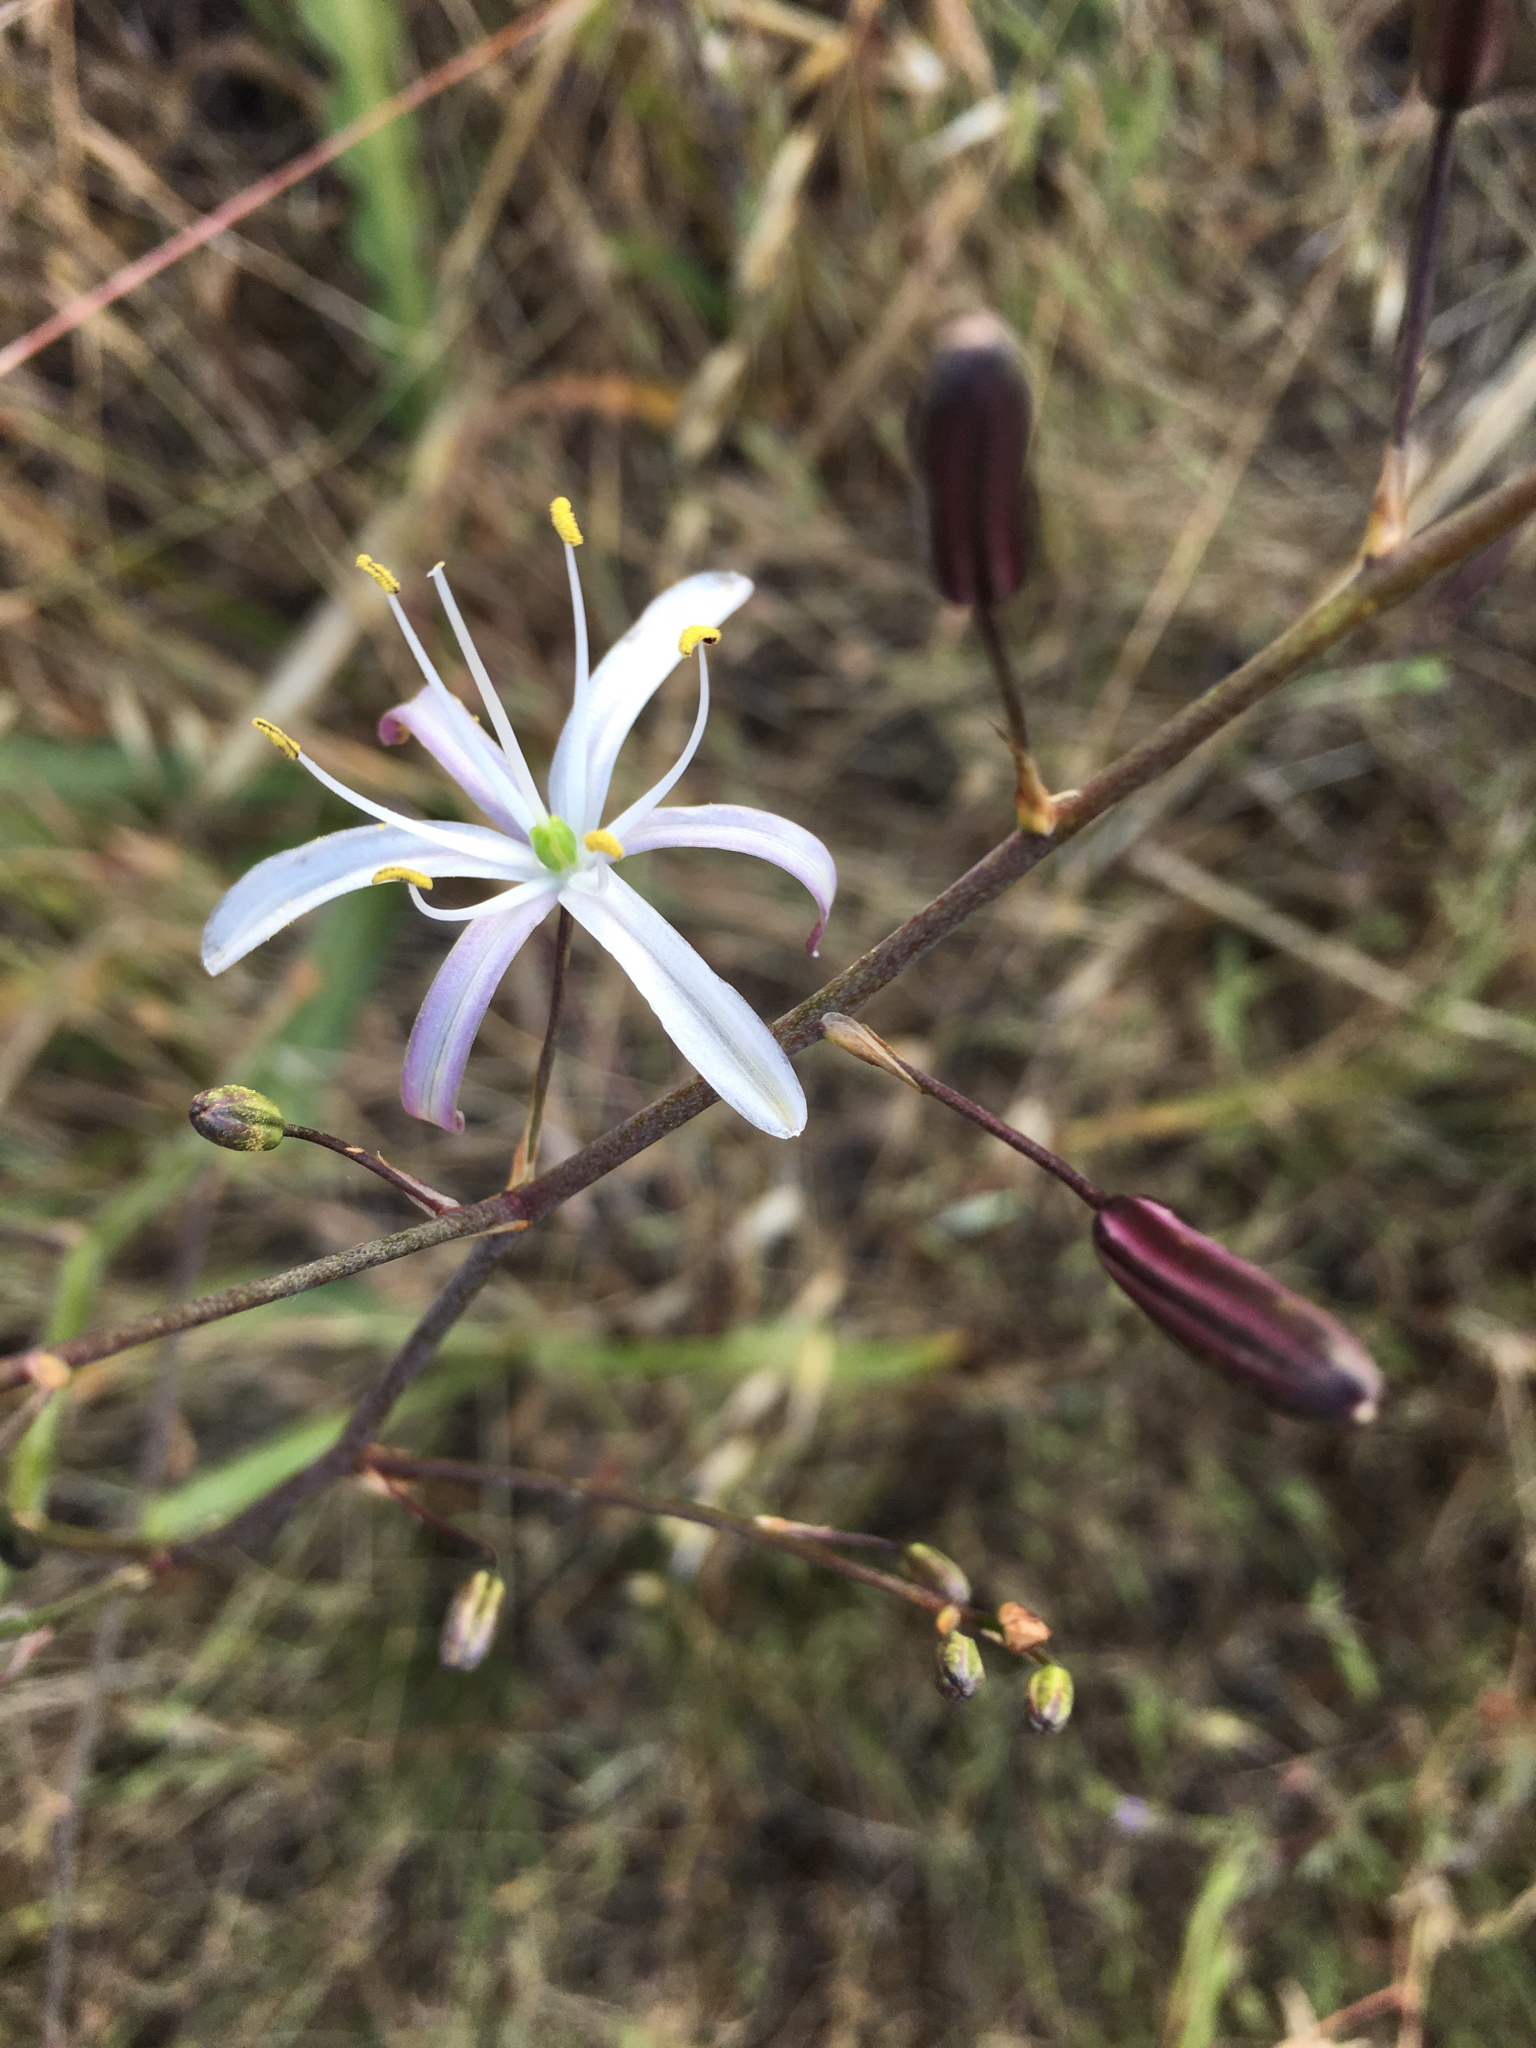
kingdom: Plantae
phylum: Tracheophyta
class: Liliopsida
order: Asparagales
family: Asparagaceae
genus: Chlorogalum
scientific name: Chlorogalum pomeridianum
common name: Amole
